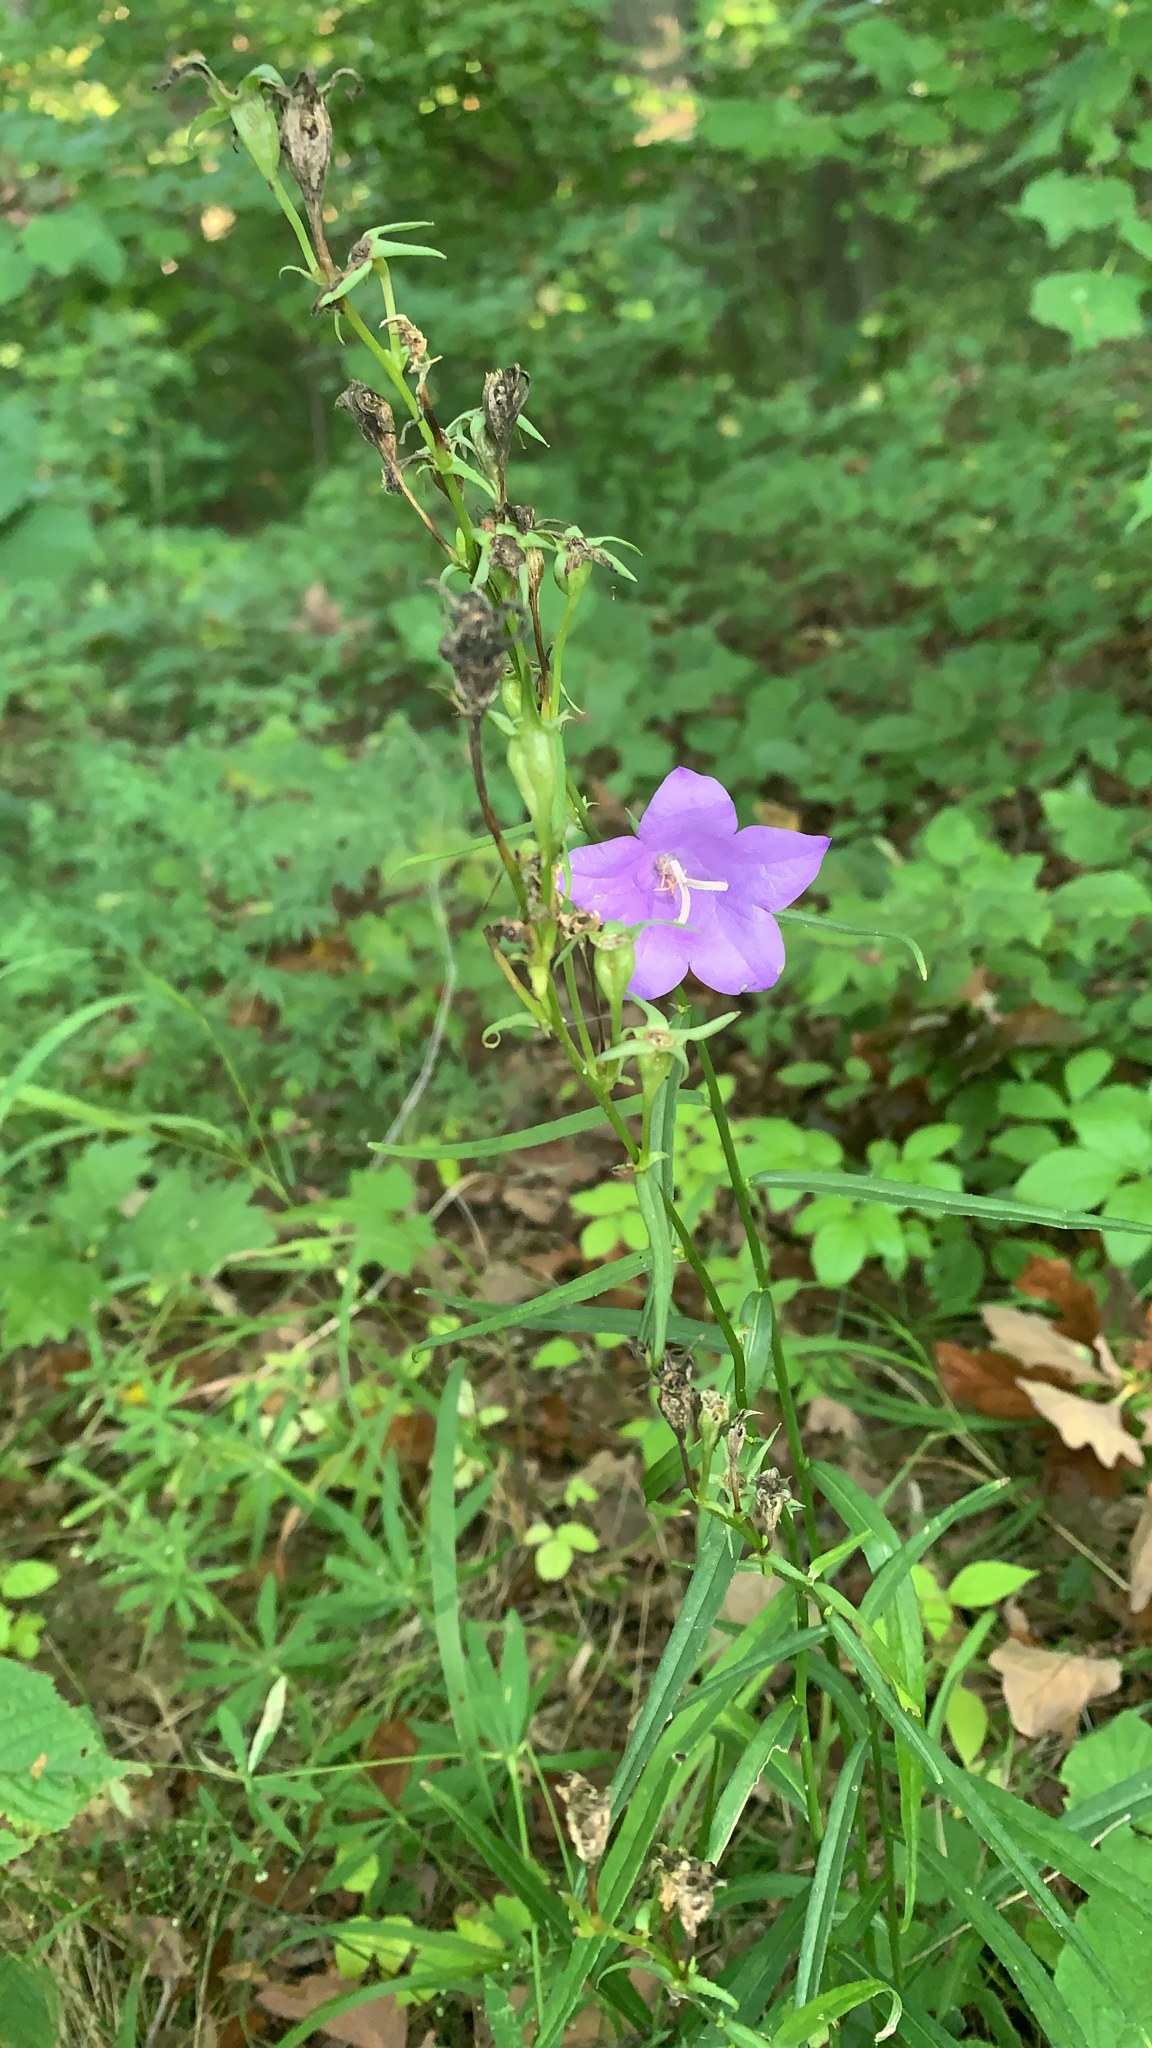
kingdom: Plantae
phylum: Tracheophyta
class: Magnoliopsida
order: Asterales
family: Campanulaceae
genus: Campanula
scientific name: Campanula persicifolia
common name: Peach-leaved bellflower
